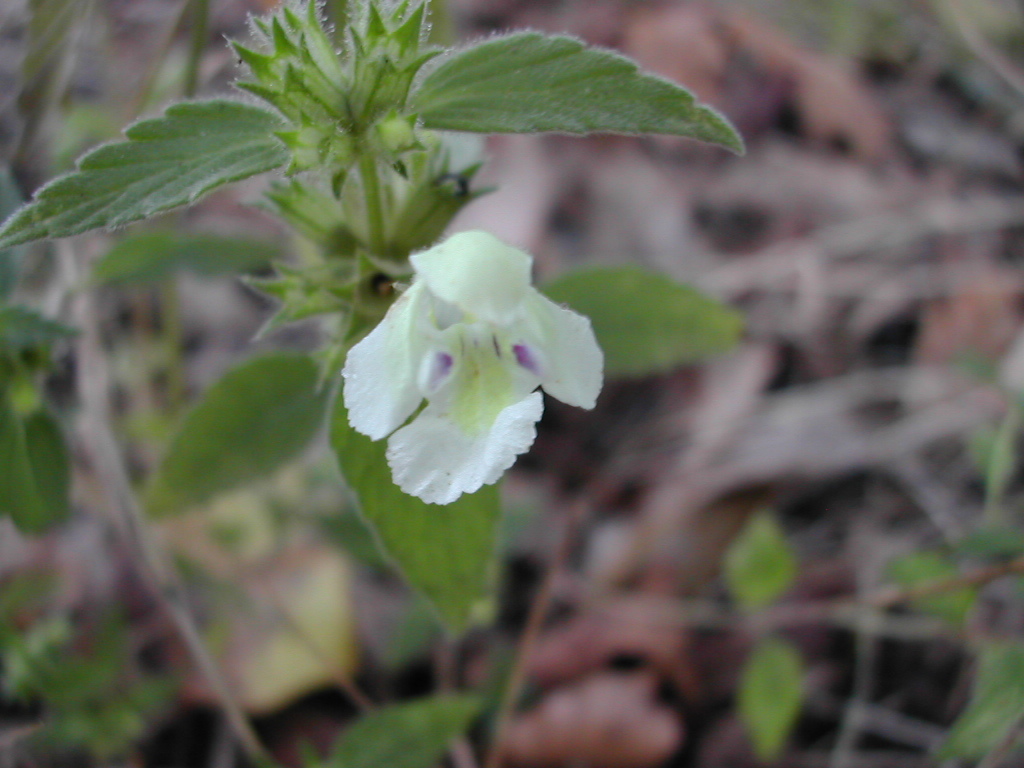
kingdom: Plantae
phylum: Tracheophyta
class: Magnoliopsida
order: Lamiales
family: Lamiaceae
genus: Galeopsis
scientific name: Galeopsis segetum
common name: Downy hemp-nettle
